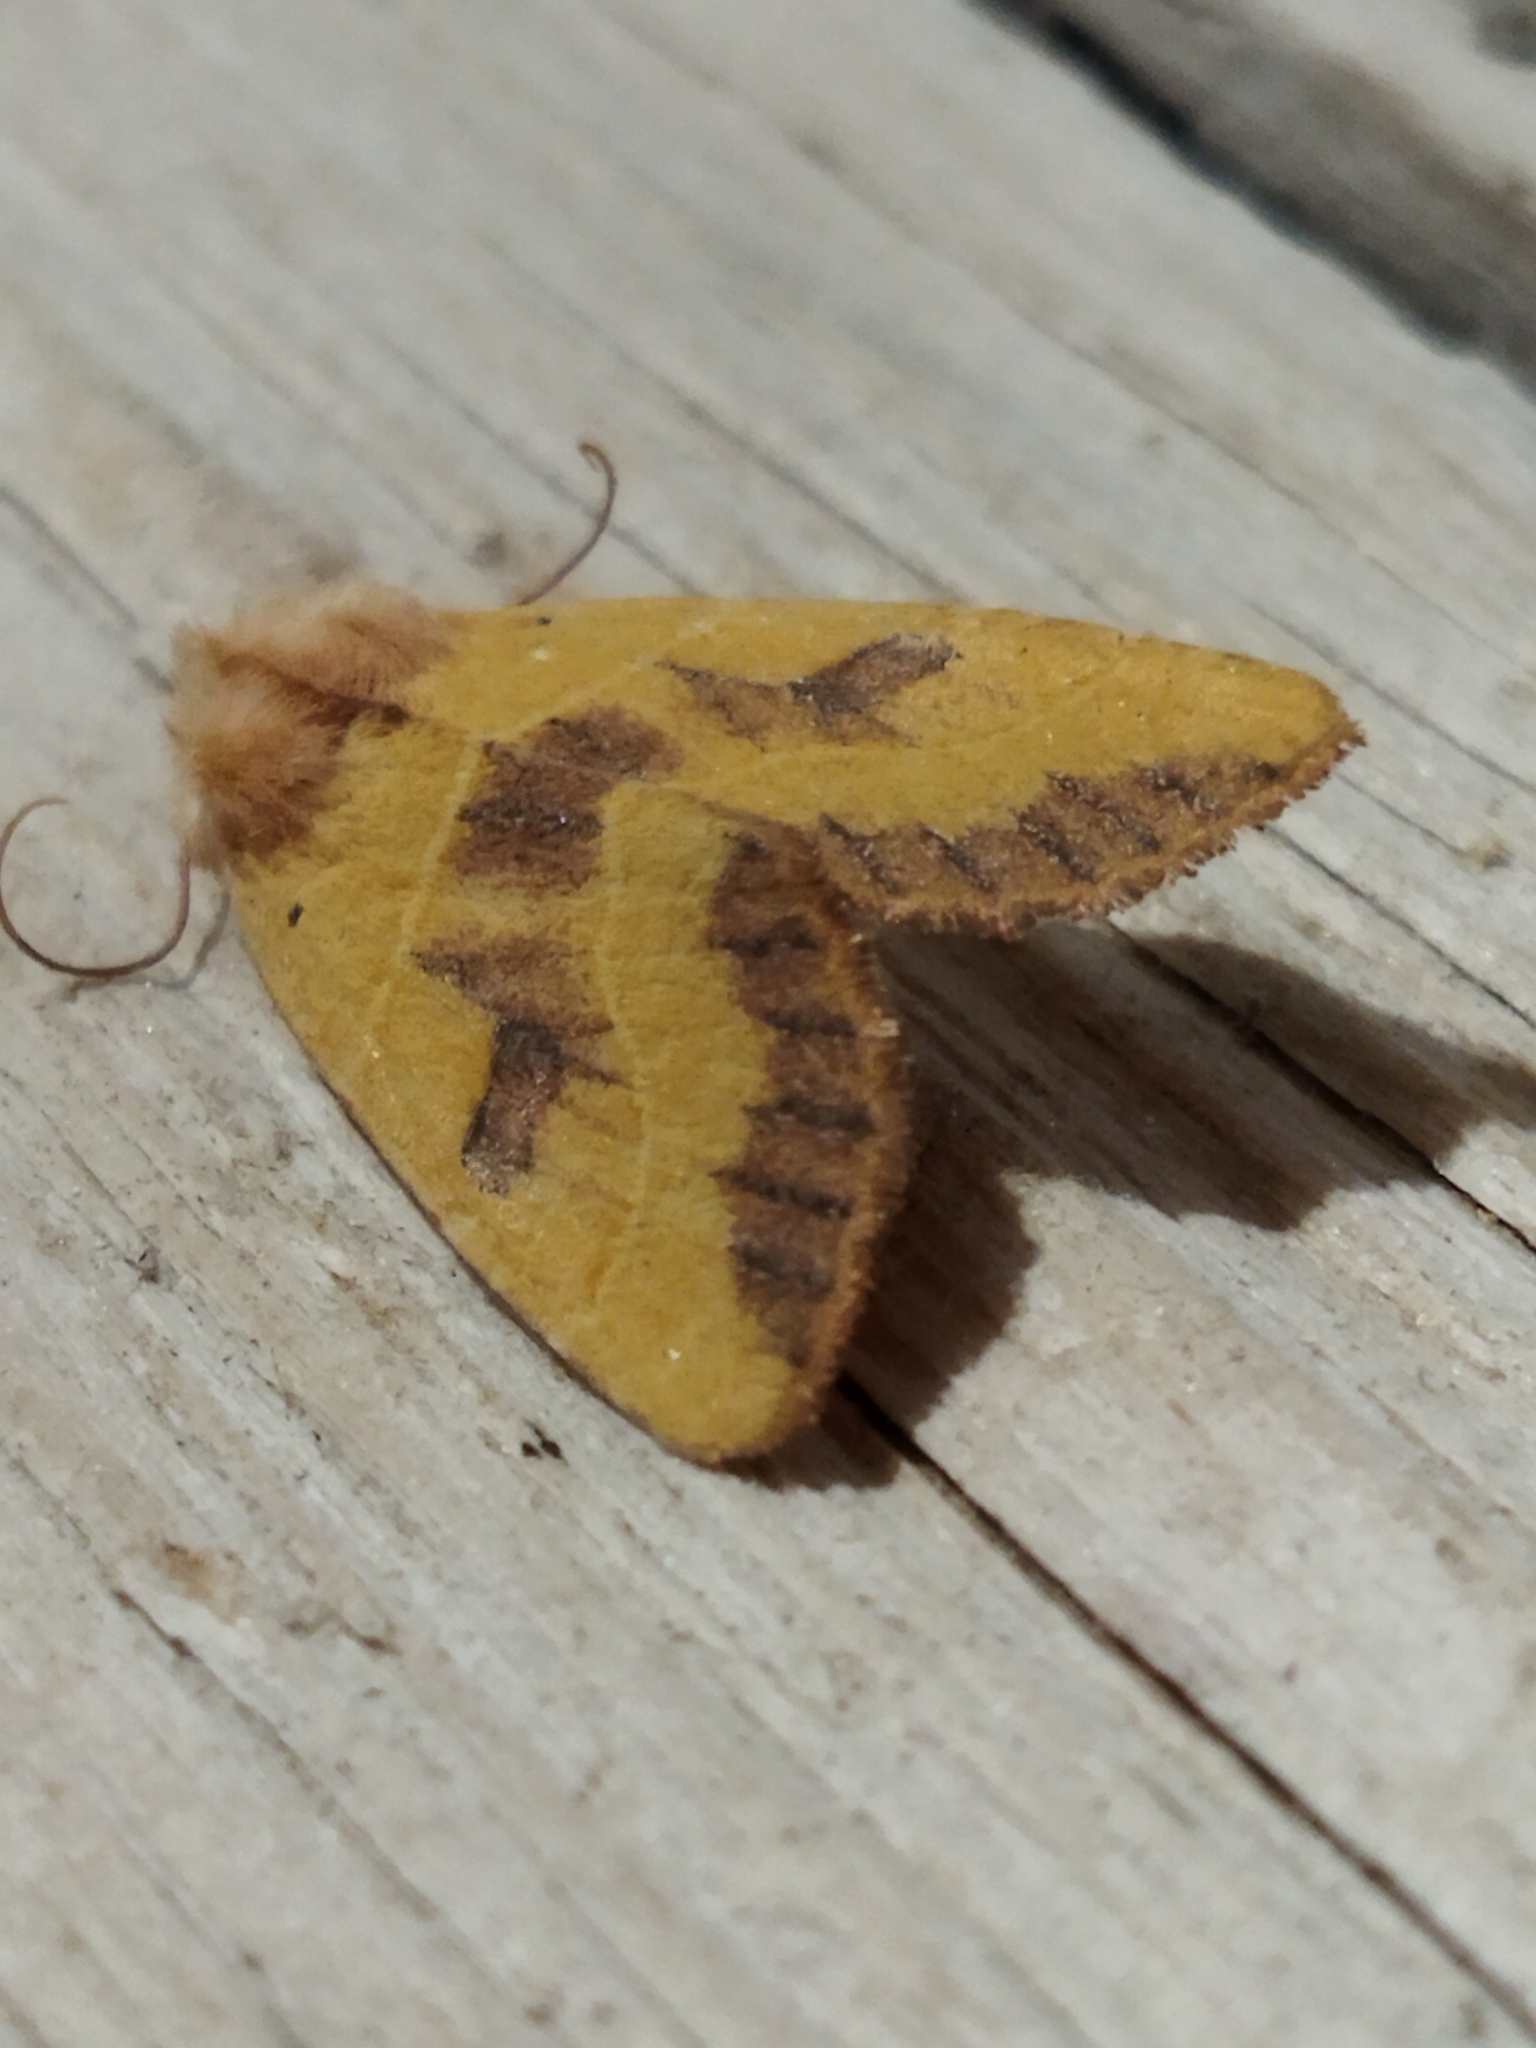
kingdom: Animalia
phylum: Arthropoda
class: Insecta
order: Lepidoptera
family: Noctuidae
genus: Atethmia
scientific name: Atethmia centrago
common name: Centre-barred sallow
